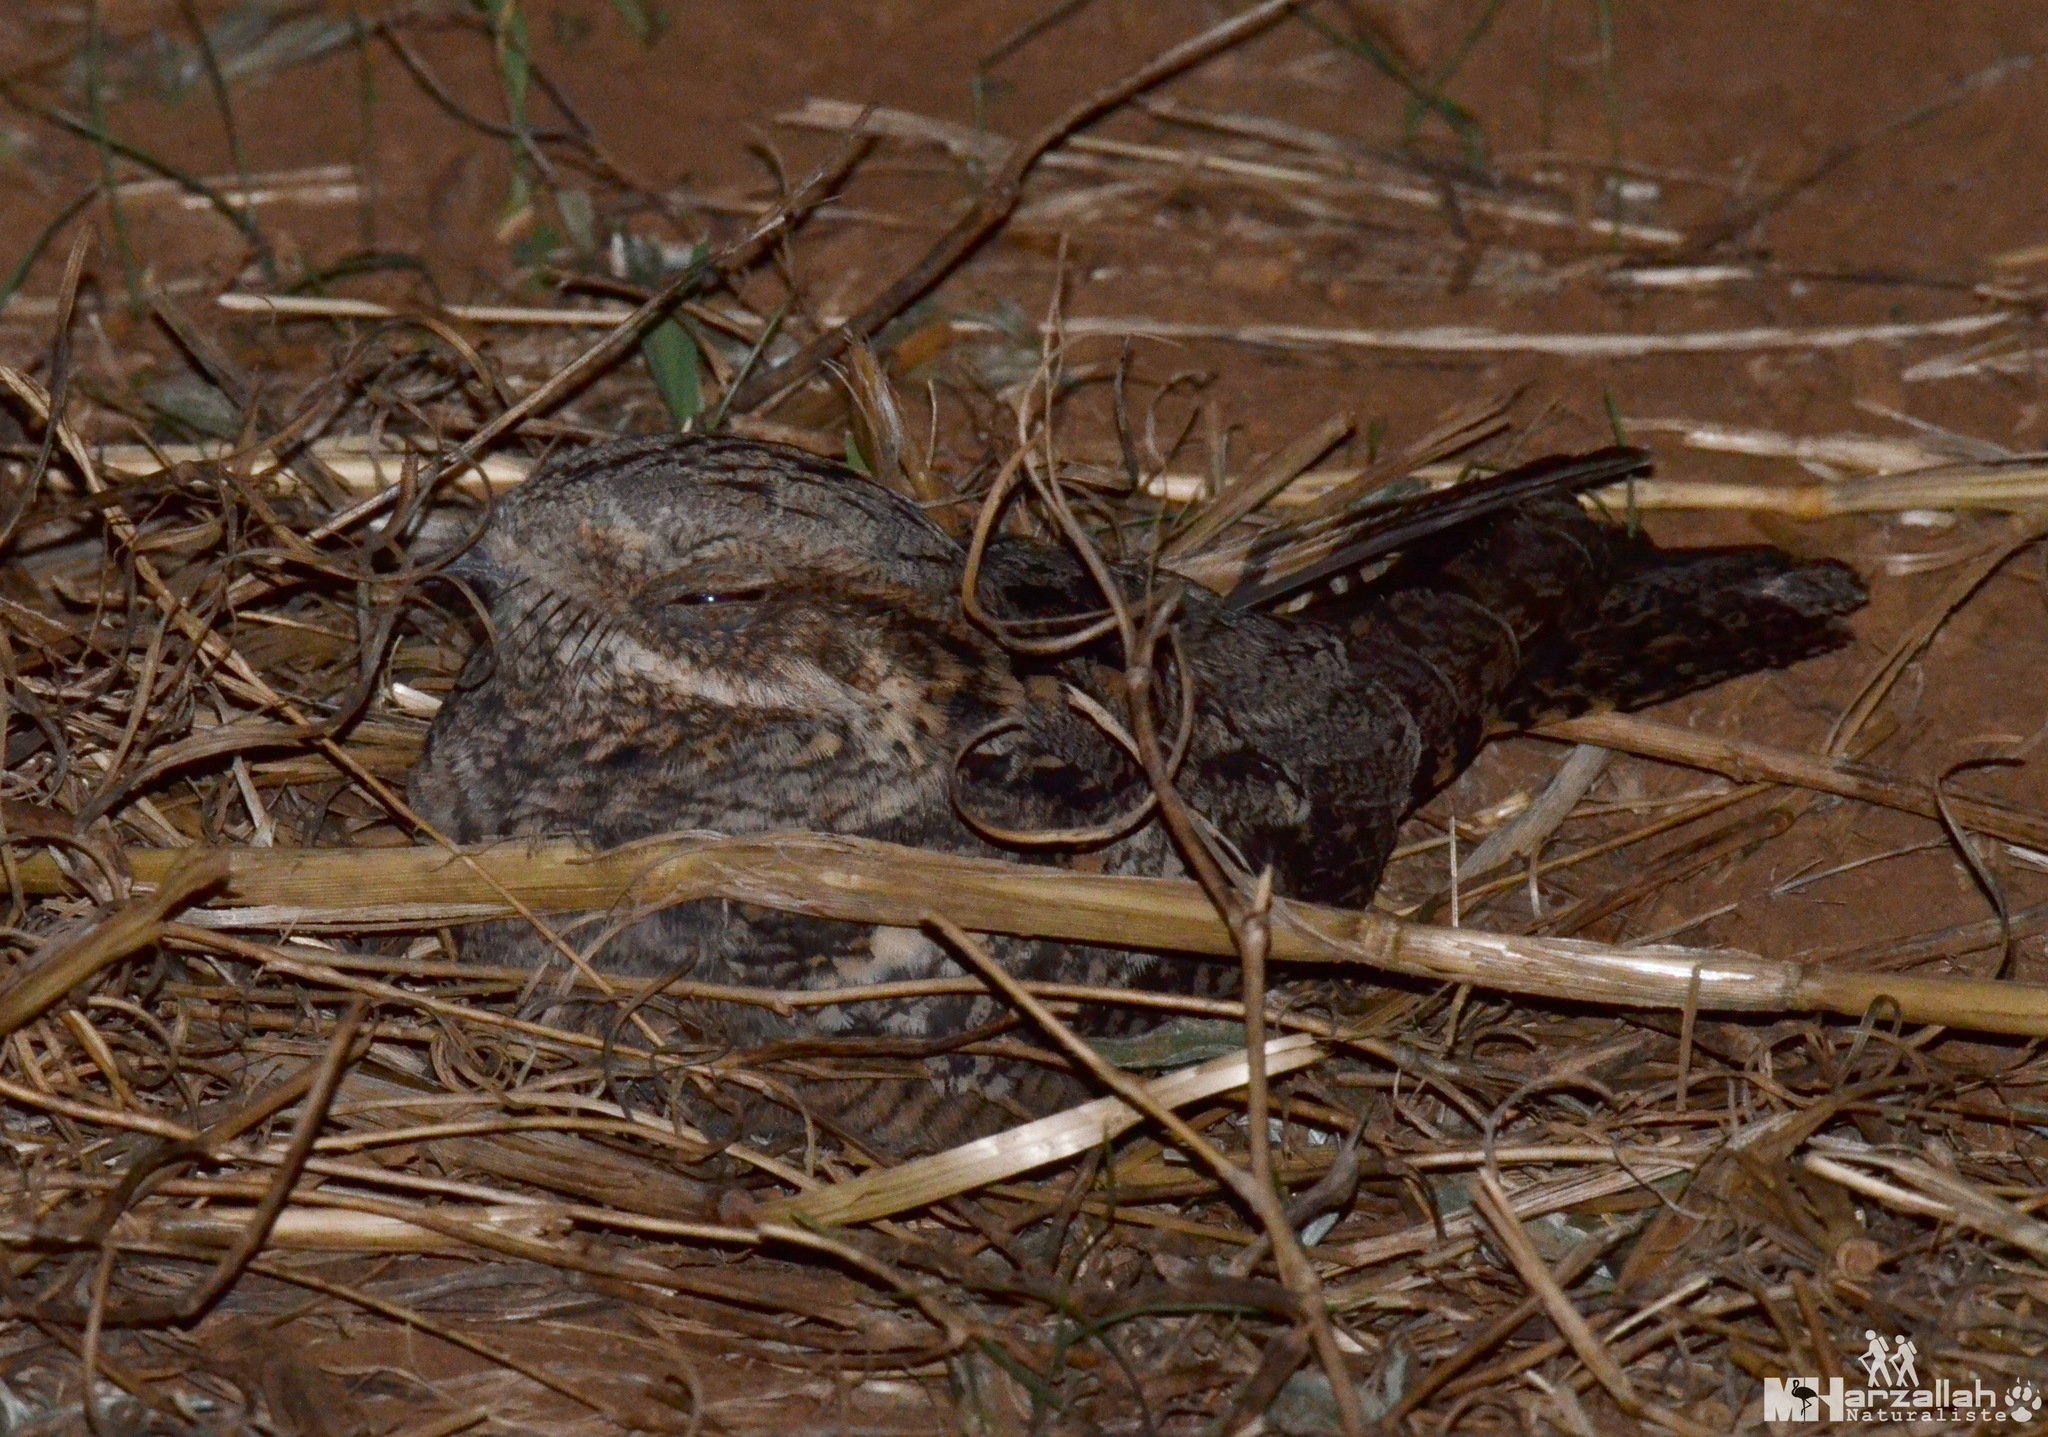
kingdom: Animalia
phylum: Chordata
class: Aves
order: Caprimulgiformes
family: Caprimulgidae
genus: Caprimulgus
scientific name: Caprimulgus europaeus
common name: European nightjar
